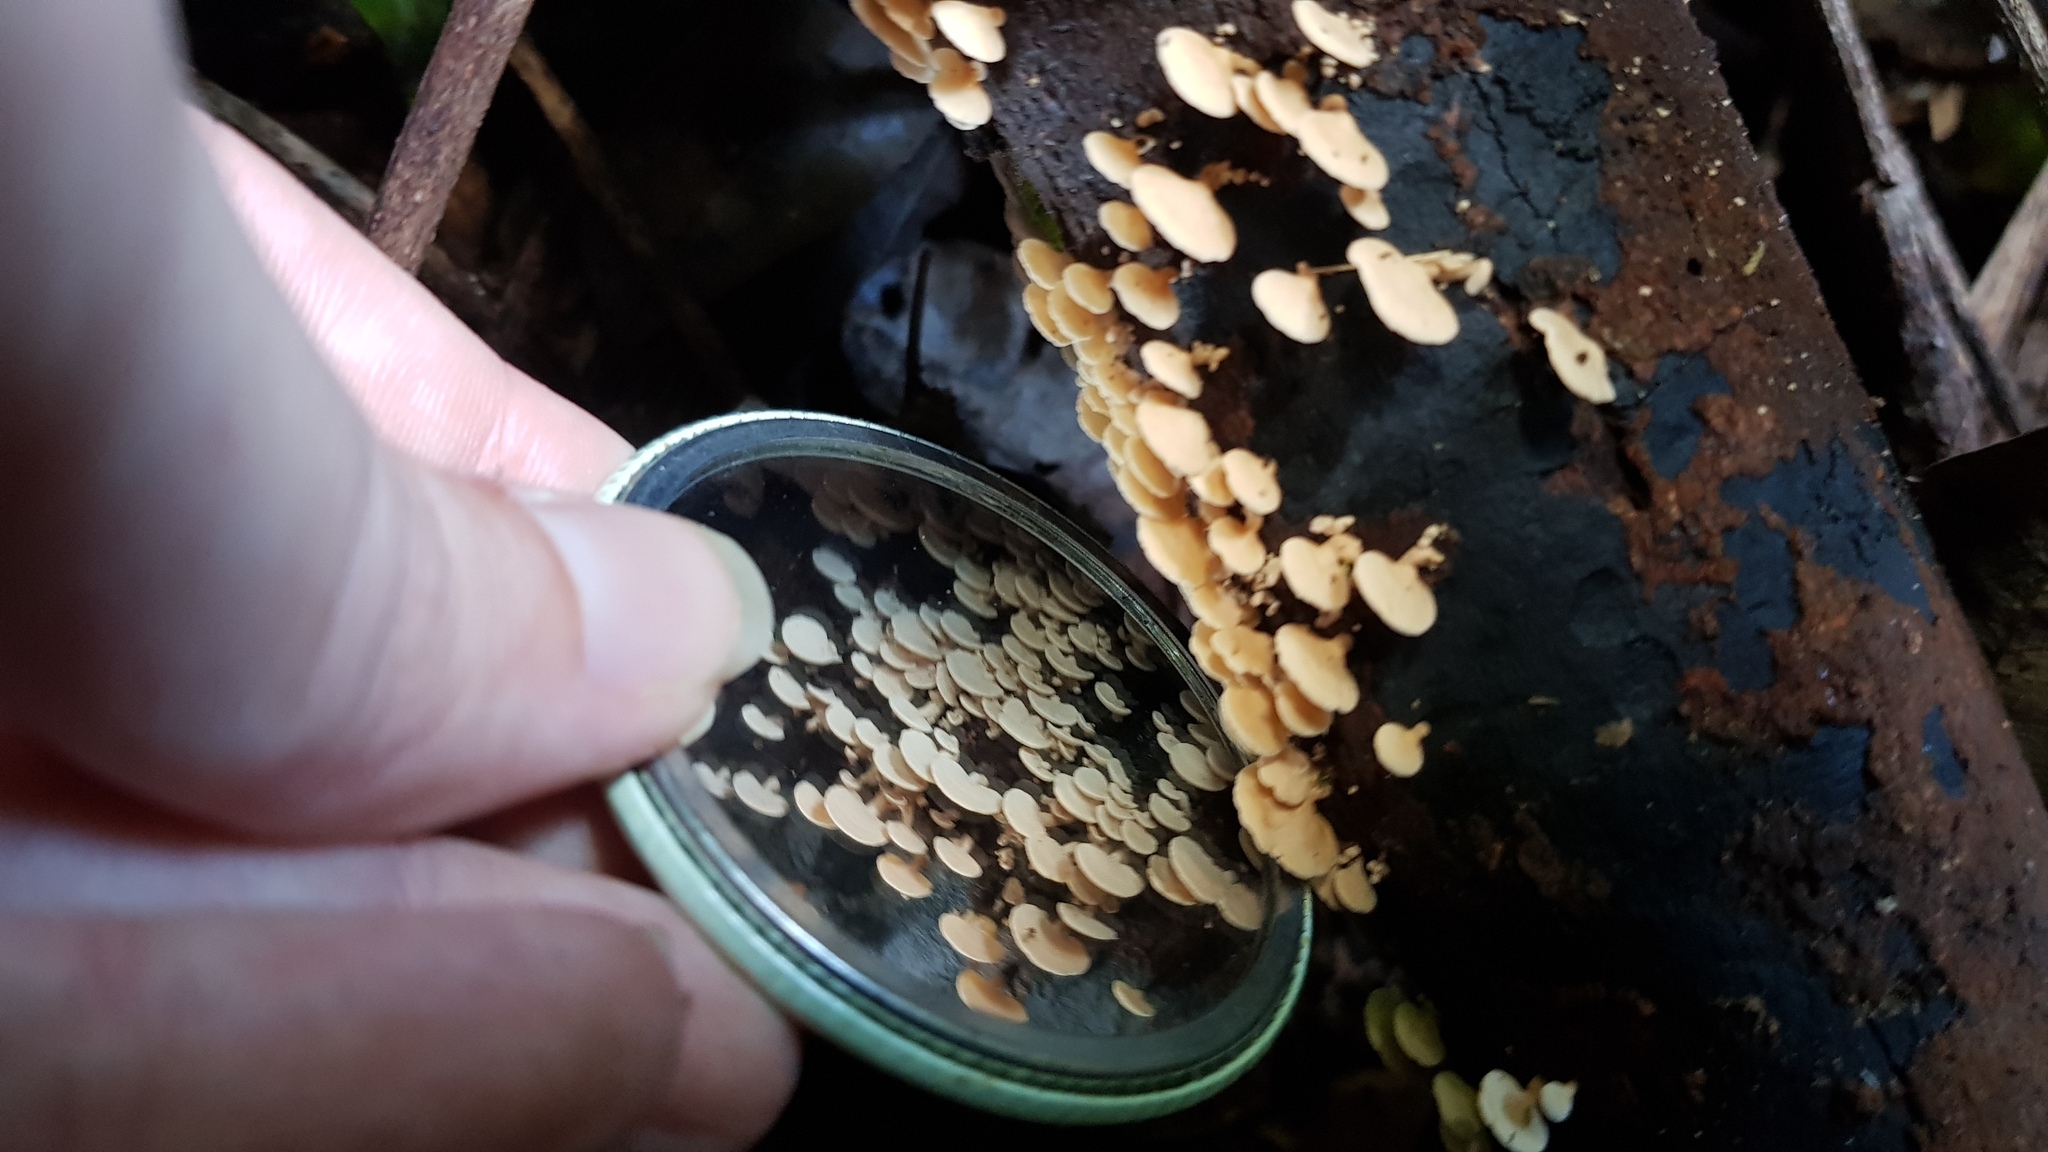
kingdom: Fungi
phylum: Basidiomycota
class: Agaricomycetes
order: Agaricales
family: Mycenaceae
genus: Panellus
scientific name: Panellus luxfilamentus
